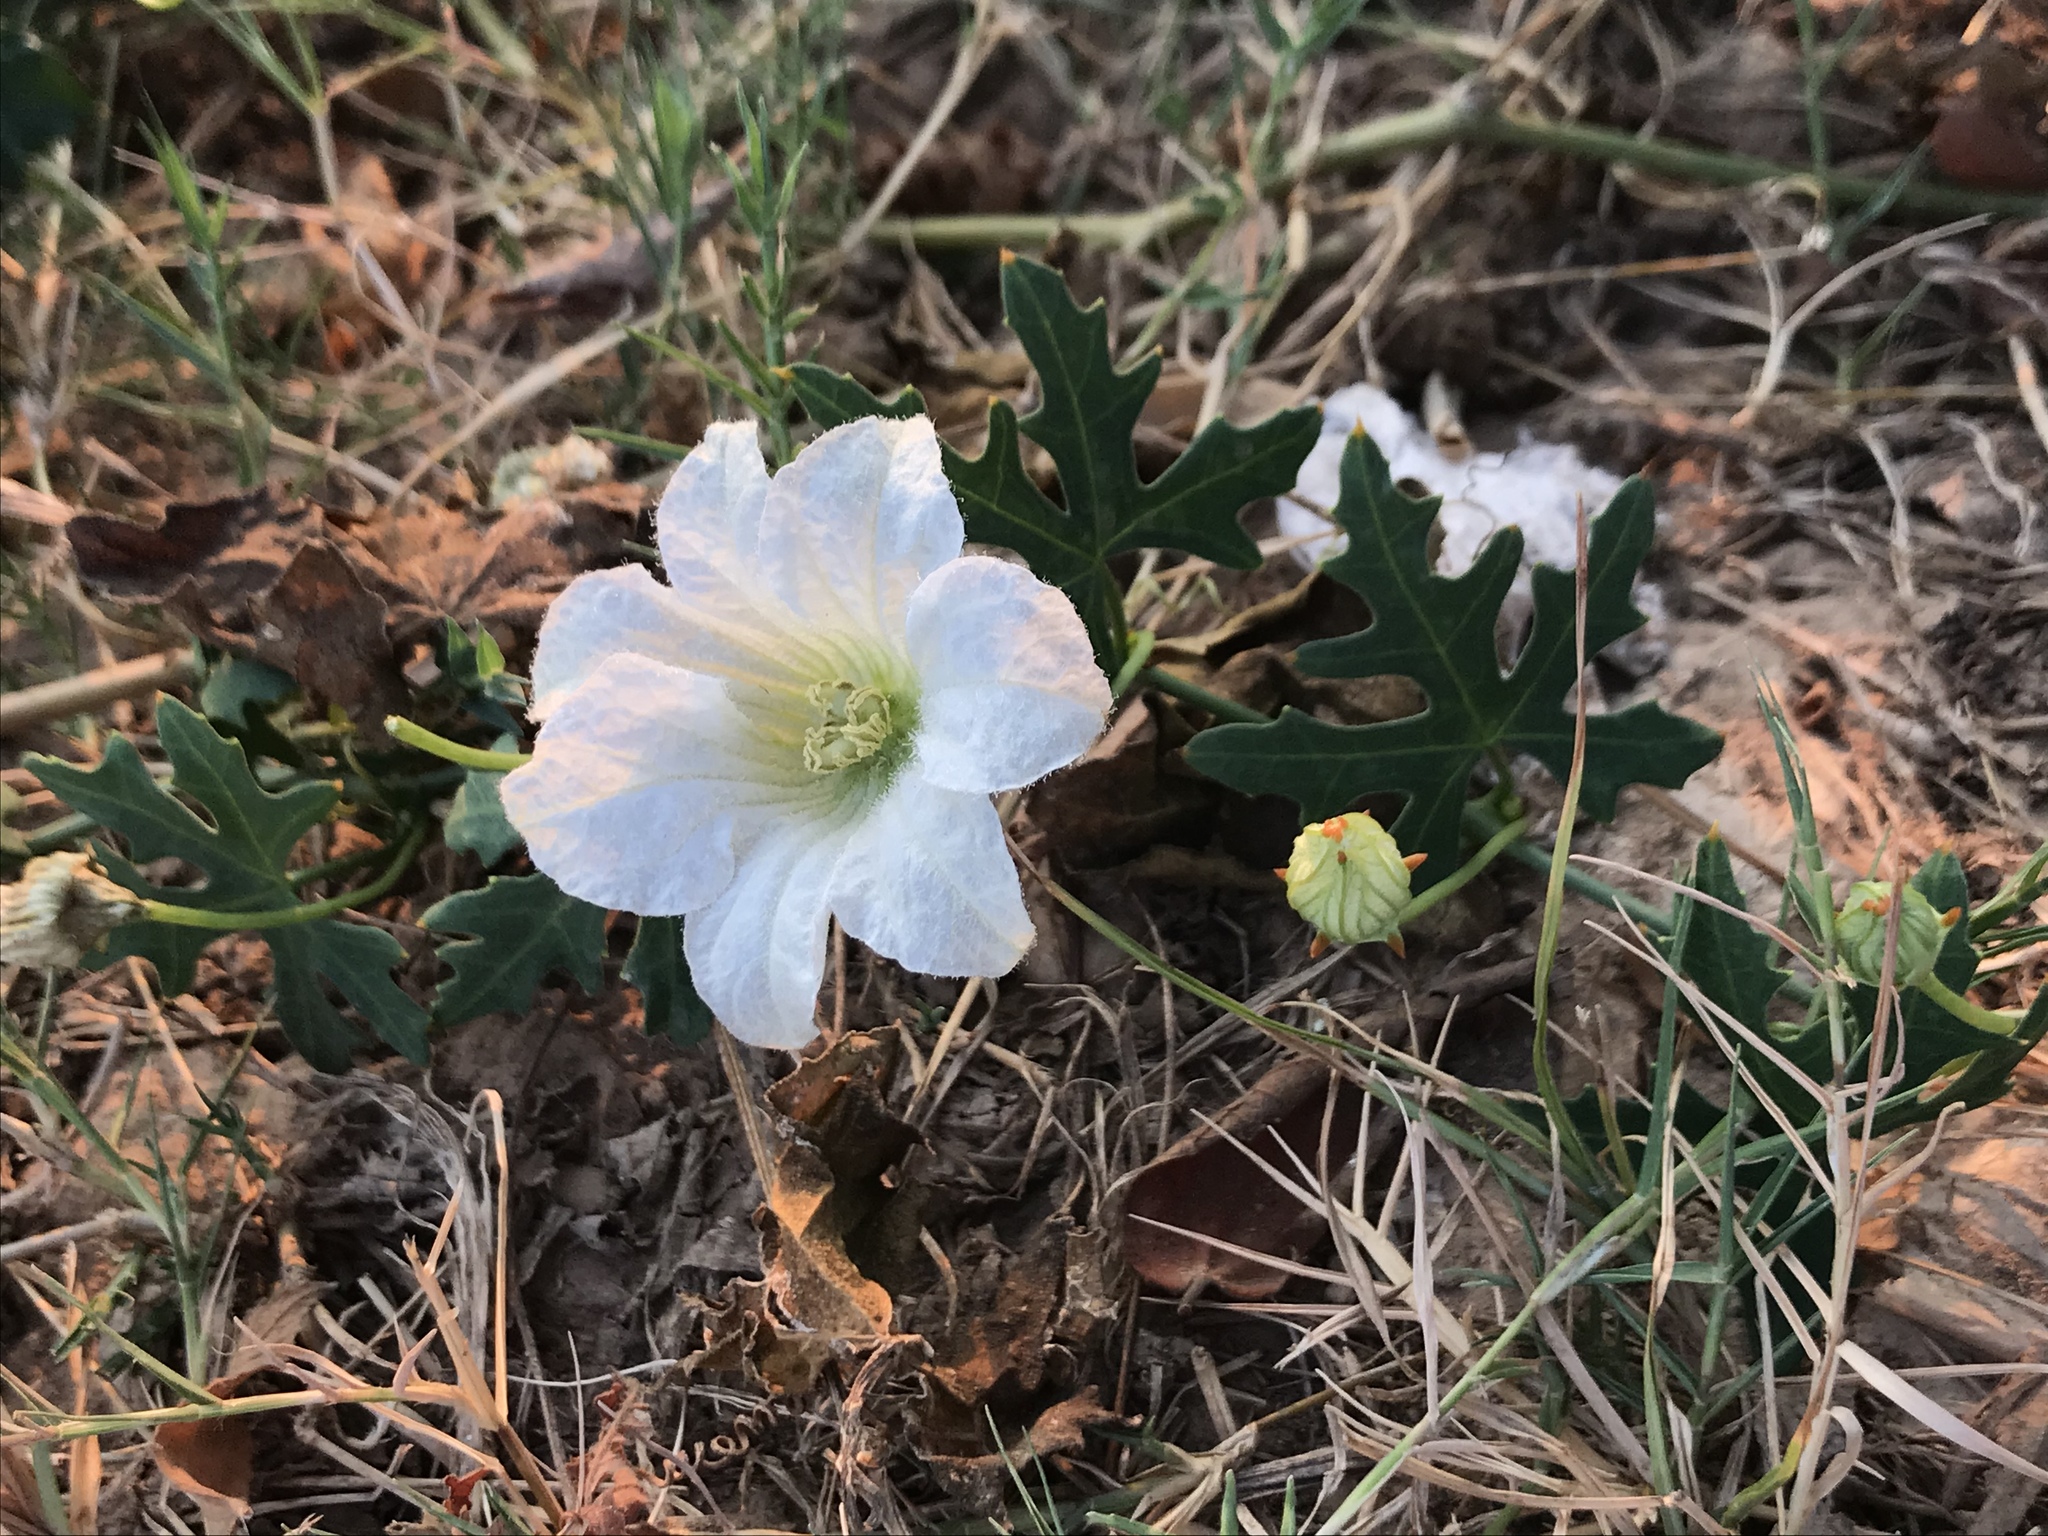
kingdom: Plantae
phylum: Tracheophyta
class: Magnoliopsida
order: Cucurbitales
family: Cucurbitaceae
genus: Coccinia
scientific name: Coccinia grandis
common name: Ivy gourd
